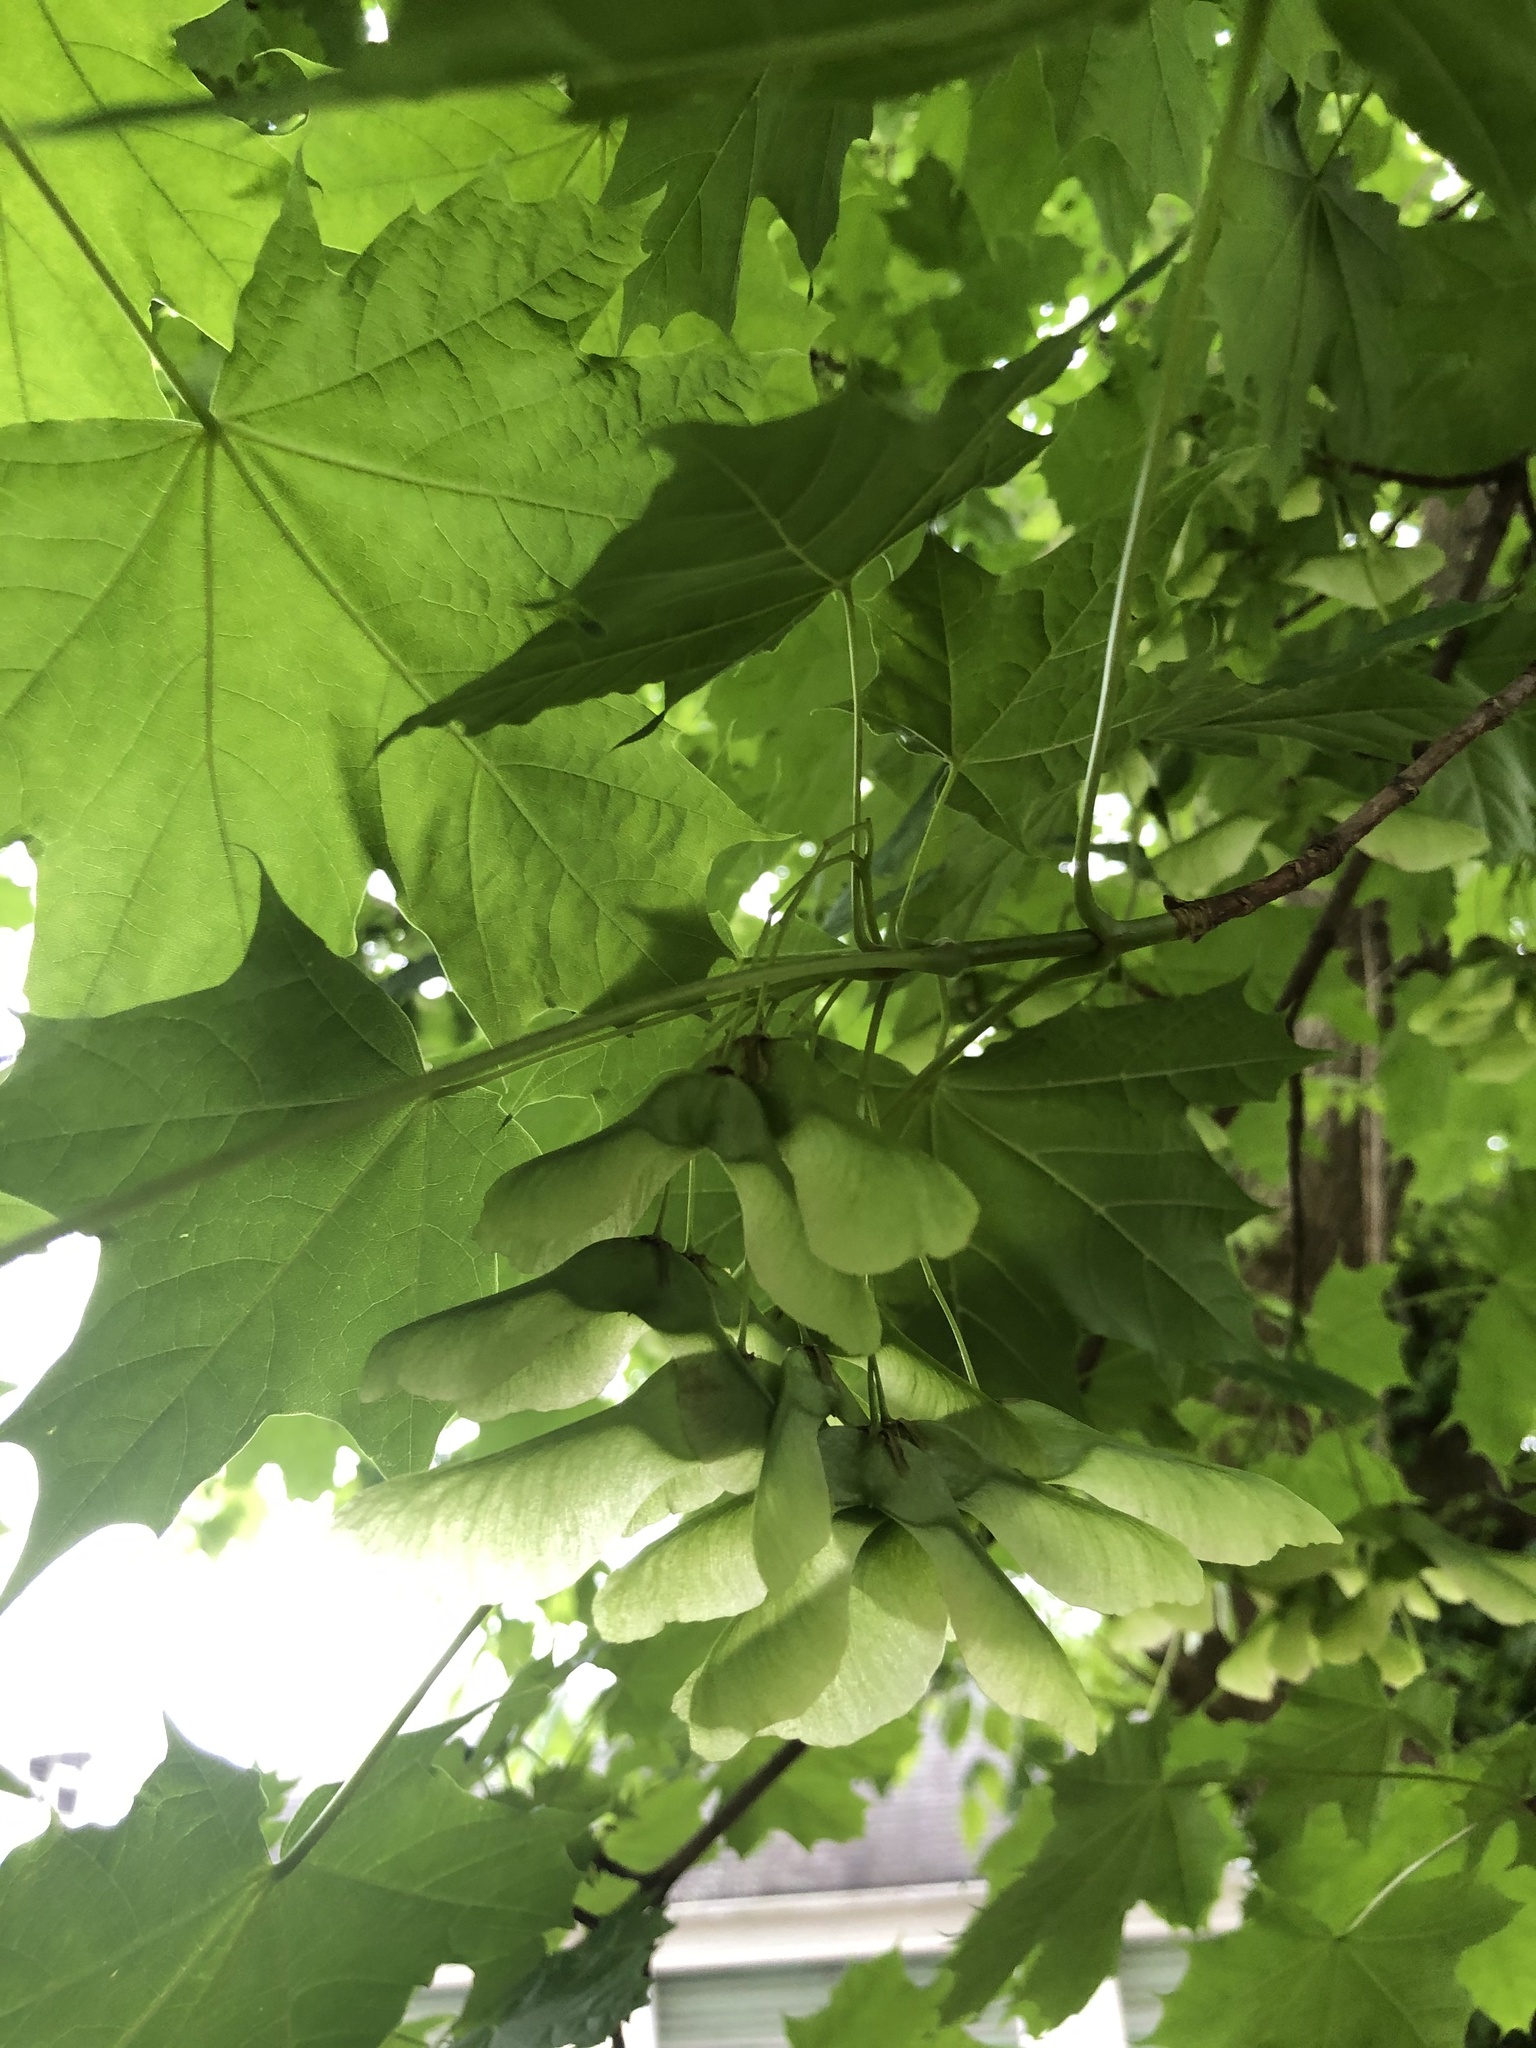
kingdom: Plantae
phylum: Tracheophyta
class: Magnoliopsida
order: Sapindales
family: Sapindaceae
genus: Acer
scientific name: Acer platanoides
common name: Norway maple
